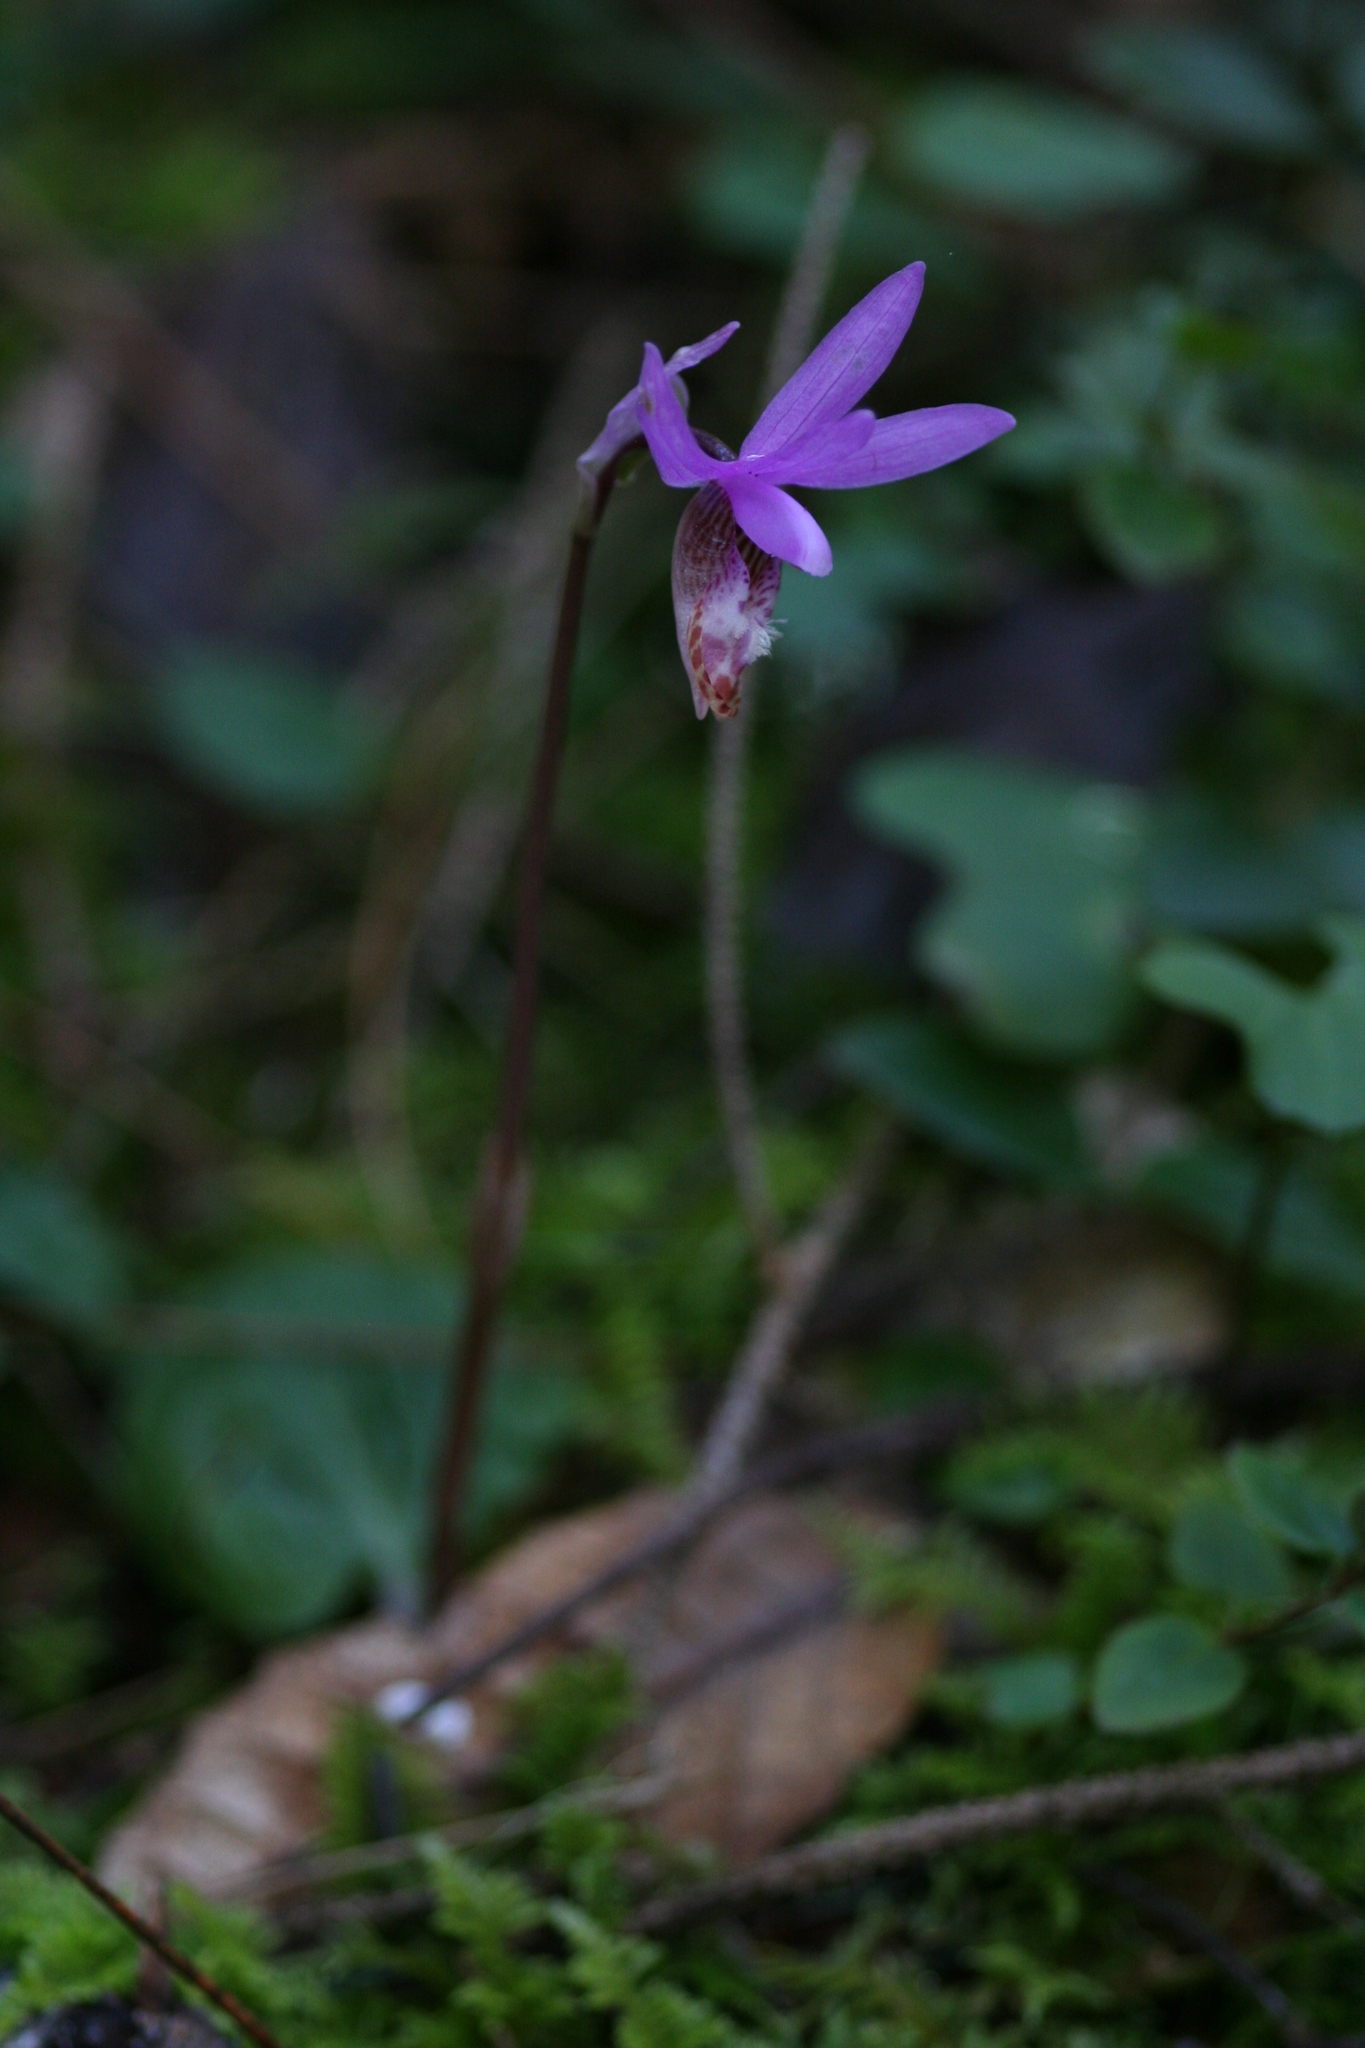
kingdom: Plantae
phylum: Tracheophyta
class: Liliopsida
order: Asparagales
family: Orchidaceae
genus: Calypso
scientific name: Calypso bulbosa
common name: Calypso
